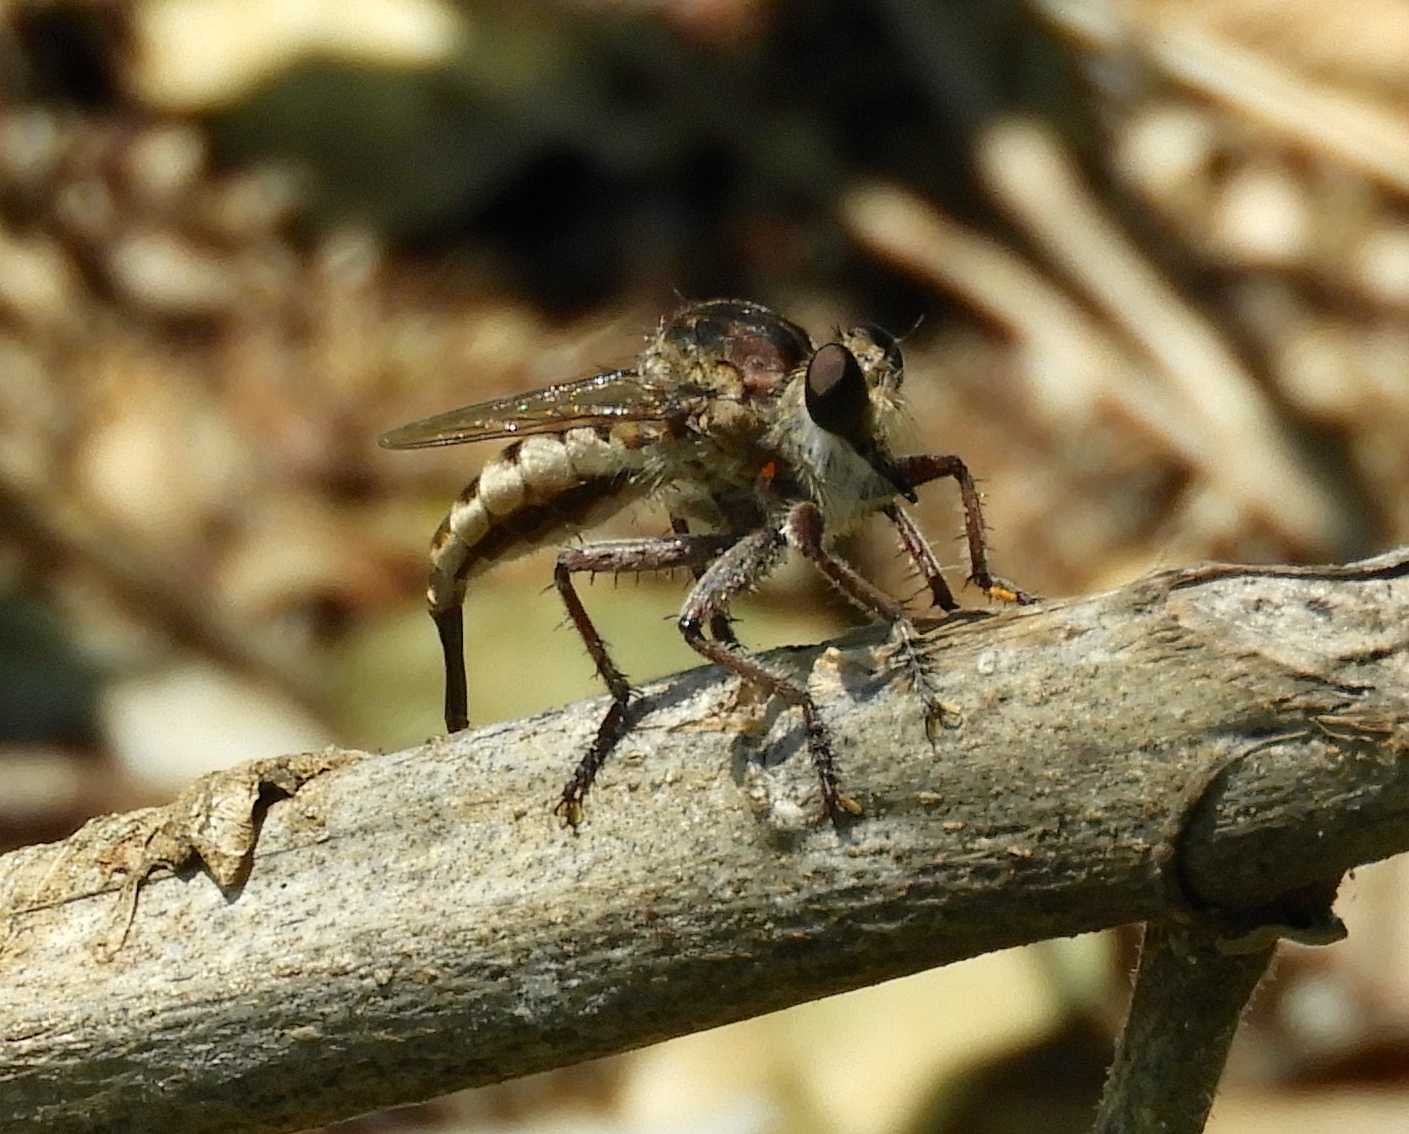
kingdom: Animalia
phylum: Arthropoda
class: Insecta
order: Diptera
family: Asilidae
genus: Efferia
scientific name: Efferia
